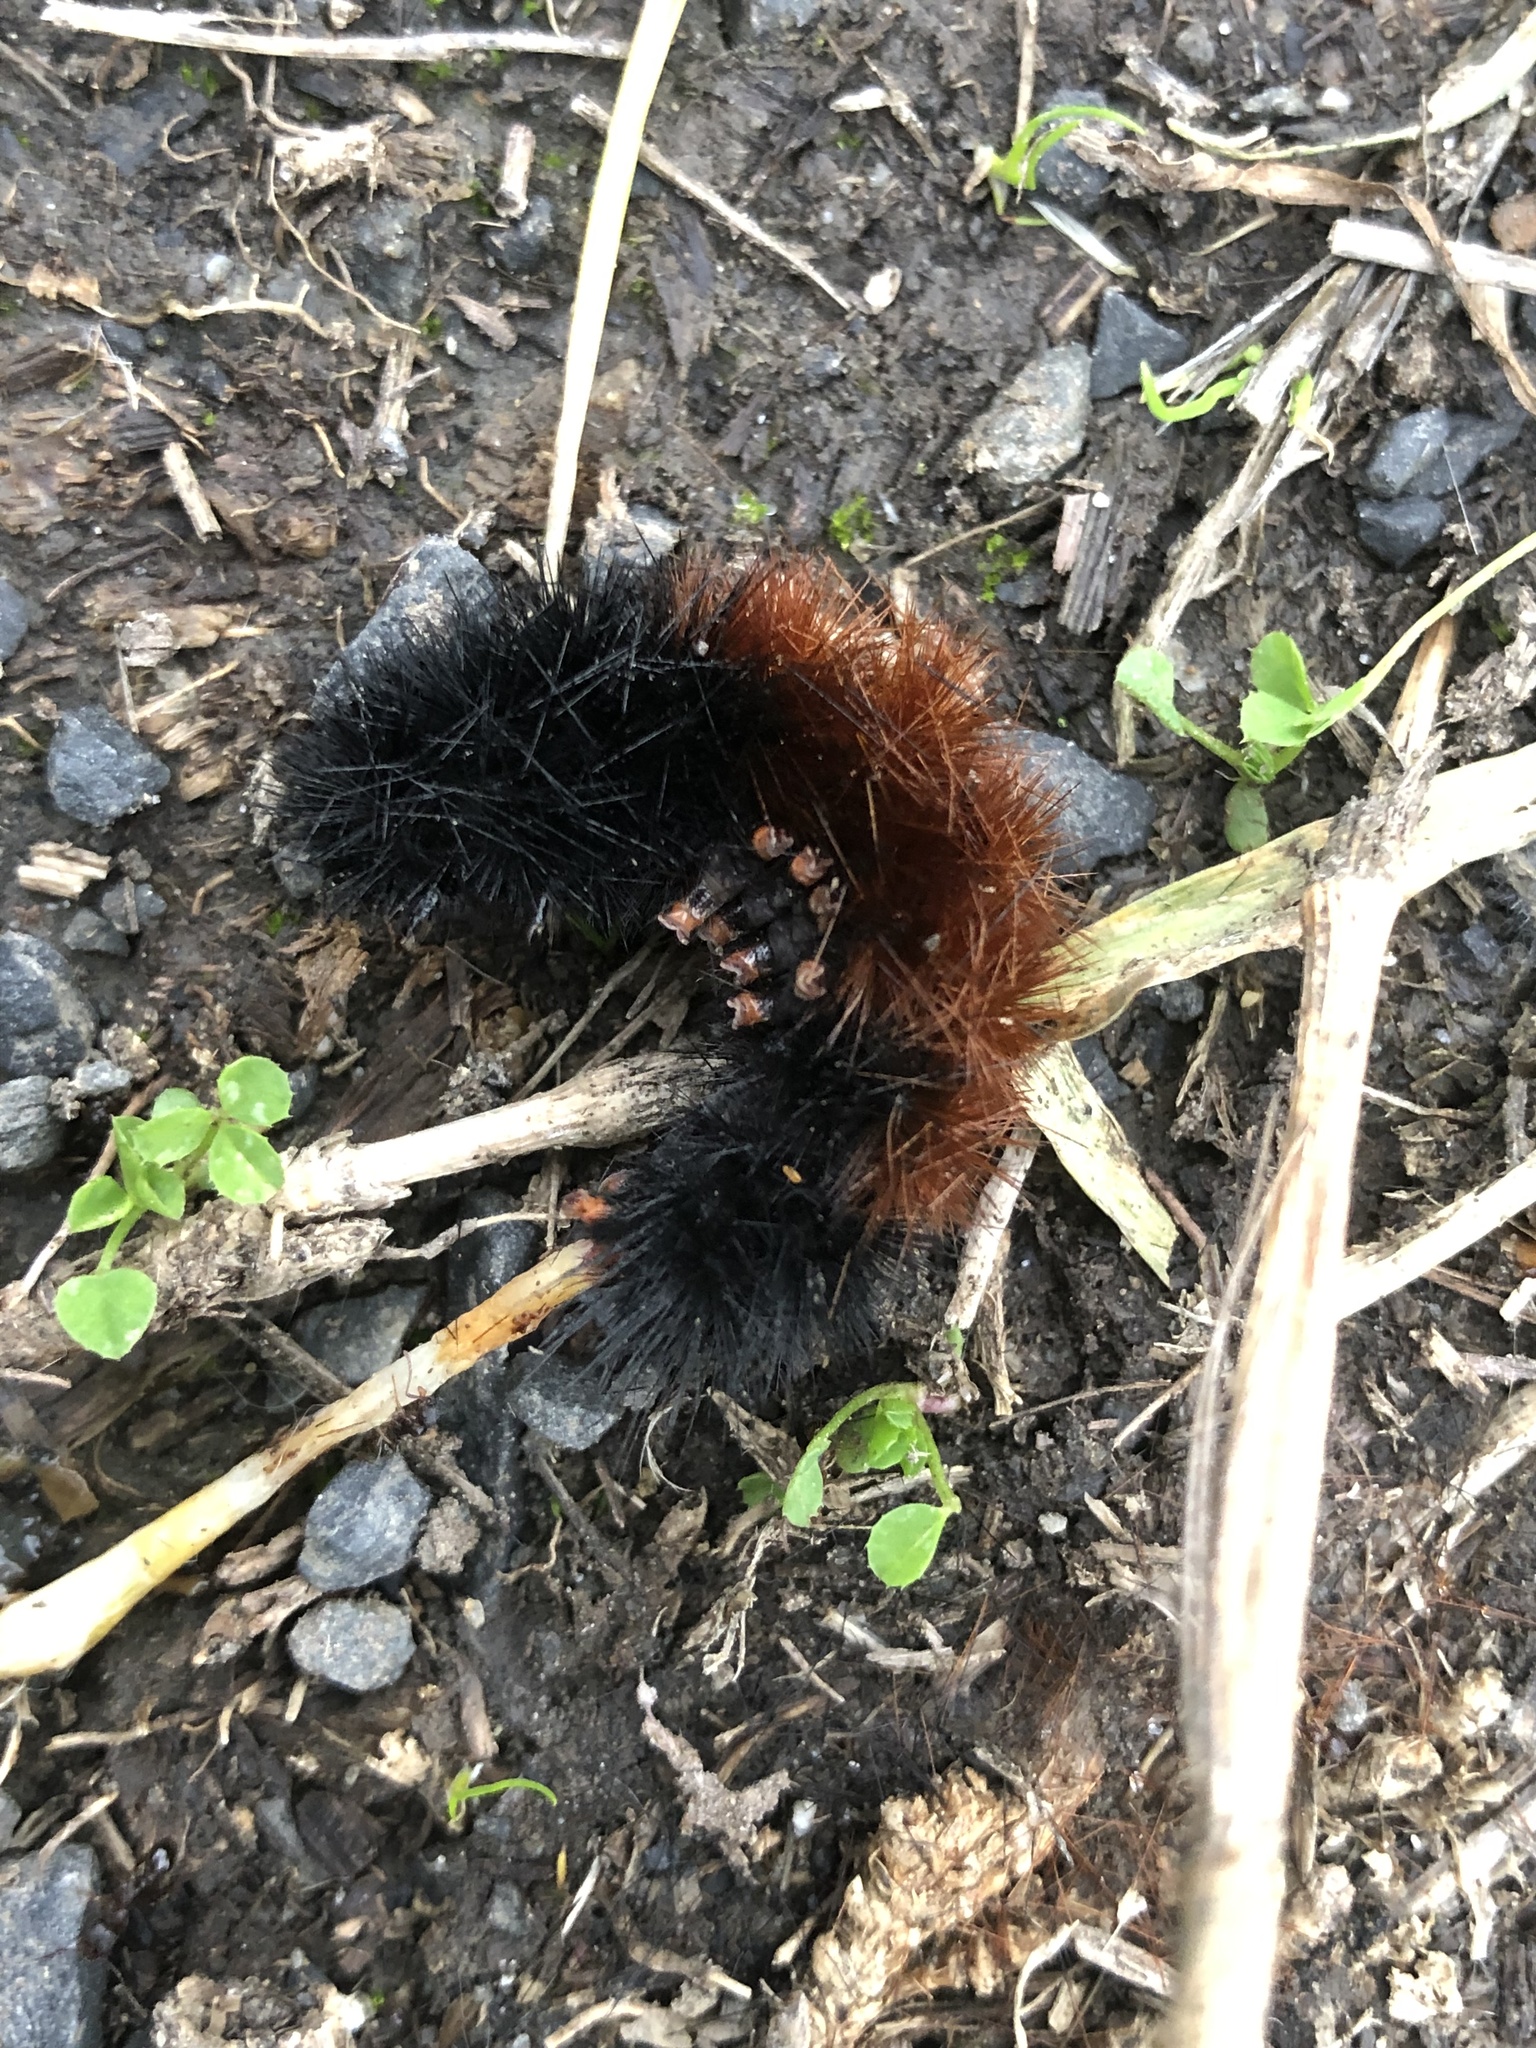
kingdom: Animalia
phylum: Arthropoda
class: Insecta
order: Lepidoptera
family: Erebidae
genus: Pyrrharctia
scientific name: Pyrrharctia isabella
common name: Isabella tiger moth
